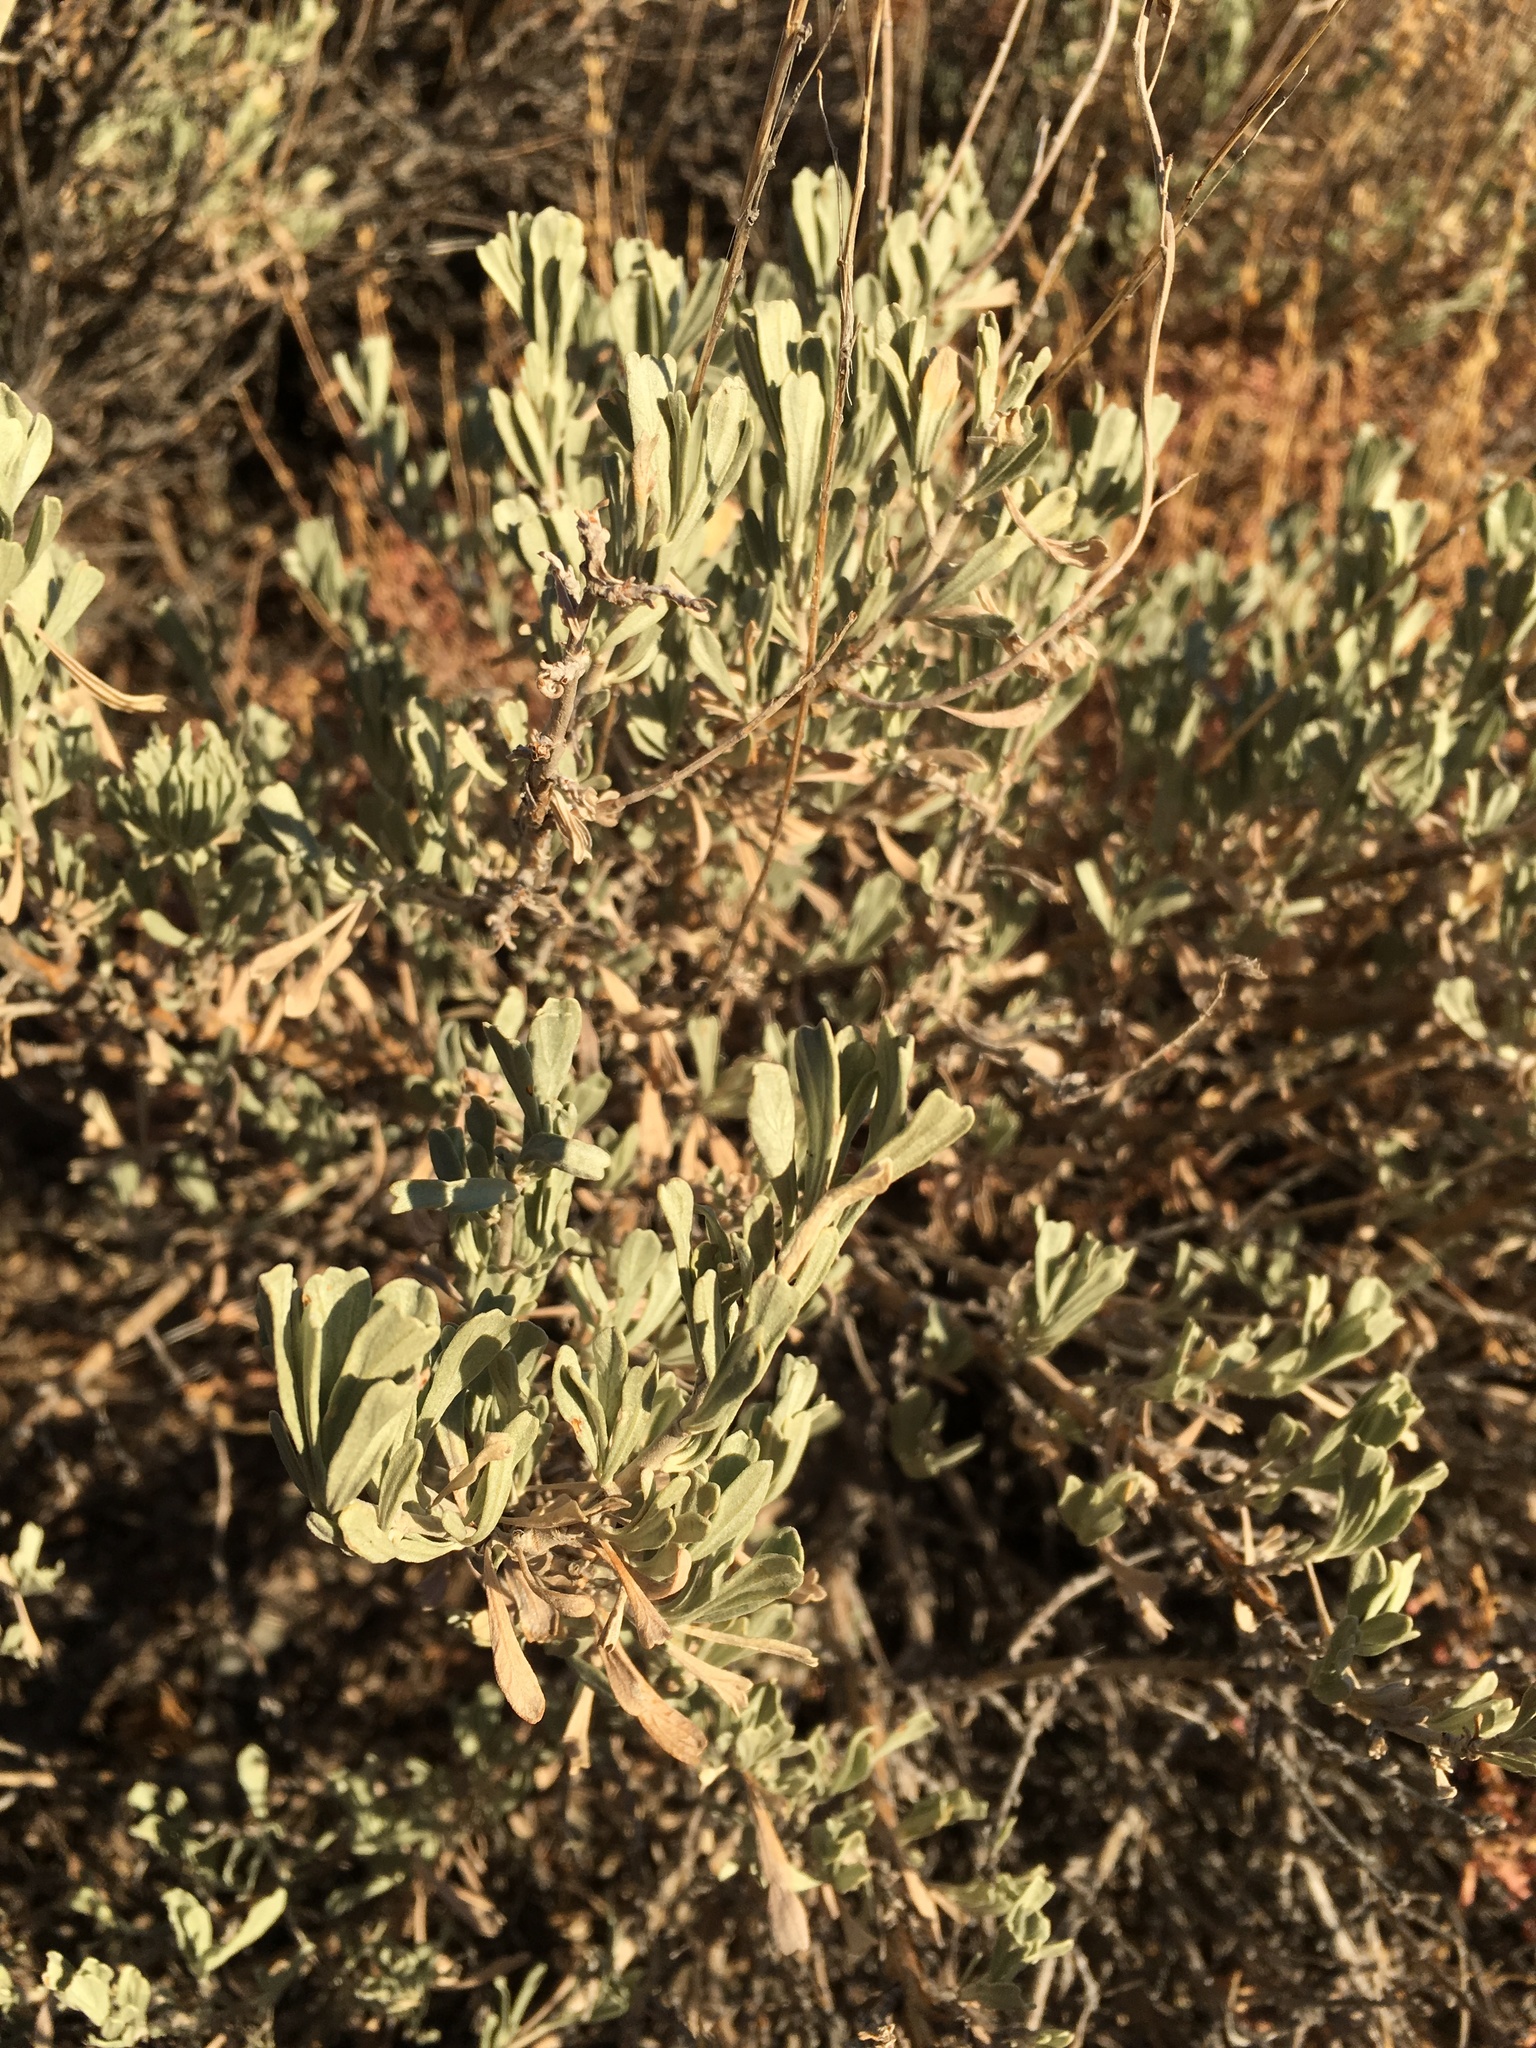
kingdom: Plantae
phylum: Tracheophyta
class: Magnoliopsida
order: Asterales
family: Asteraceae
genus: Artemisia
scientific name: Artemisia tridentata
